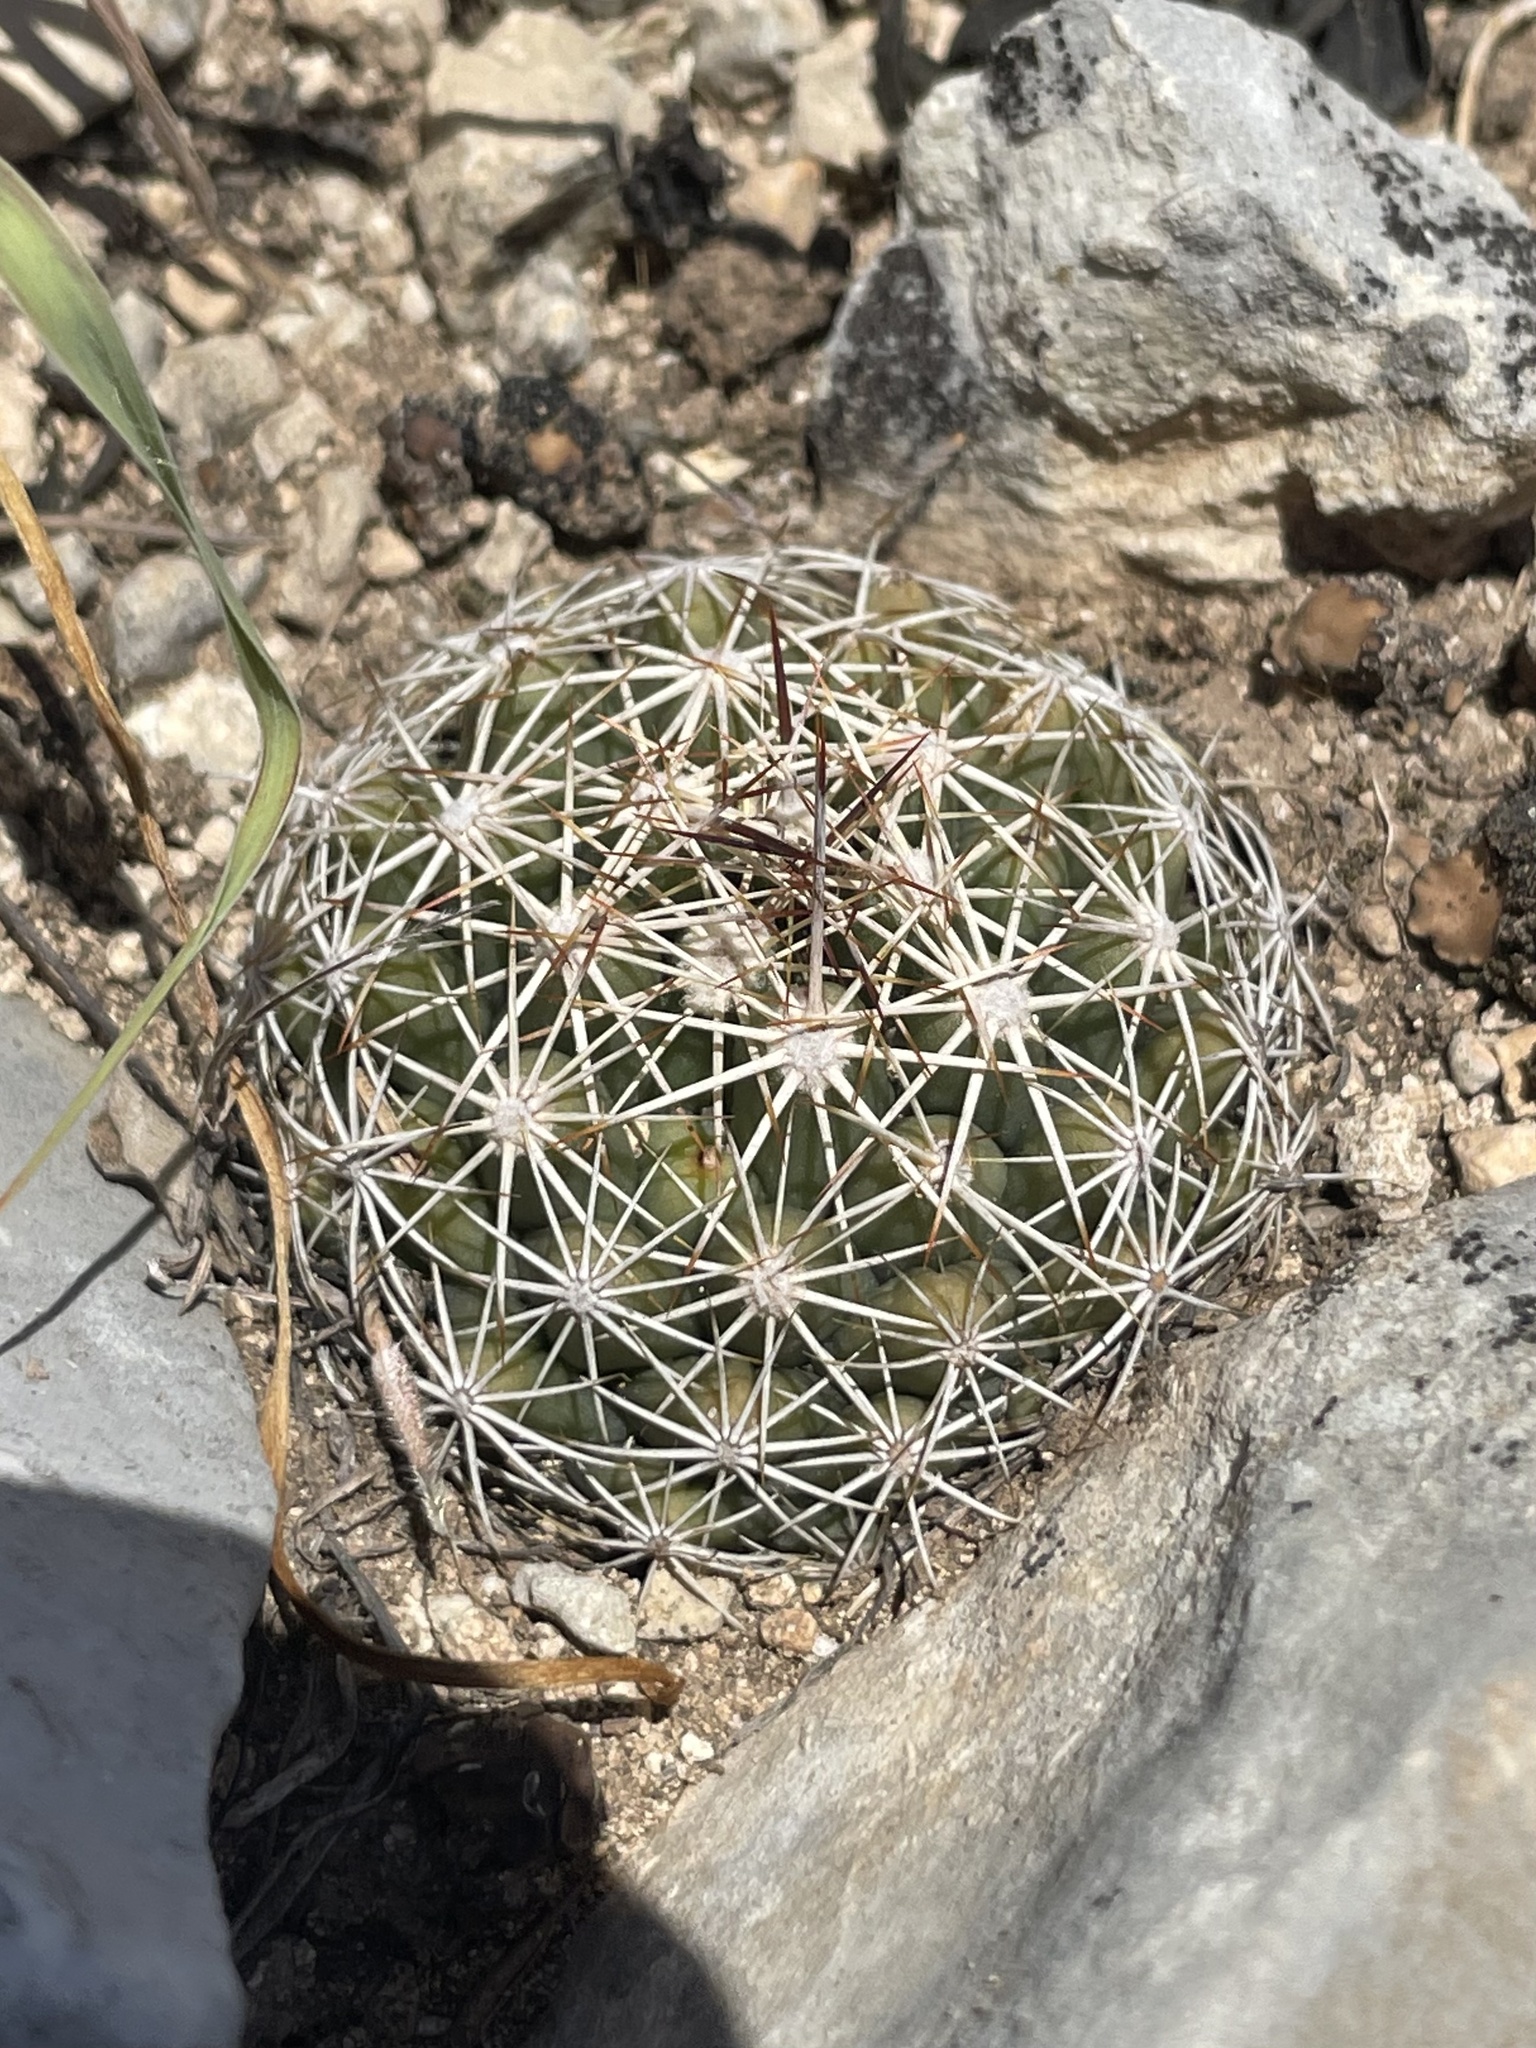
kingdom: Plantae
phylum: Tracheophyta
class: Magnoliopsida
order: Caryophyllales
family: Cactaceae
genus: Coryphantha
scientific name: Coryphantha sulcata
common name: Finger cactus
